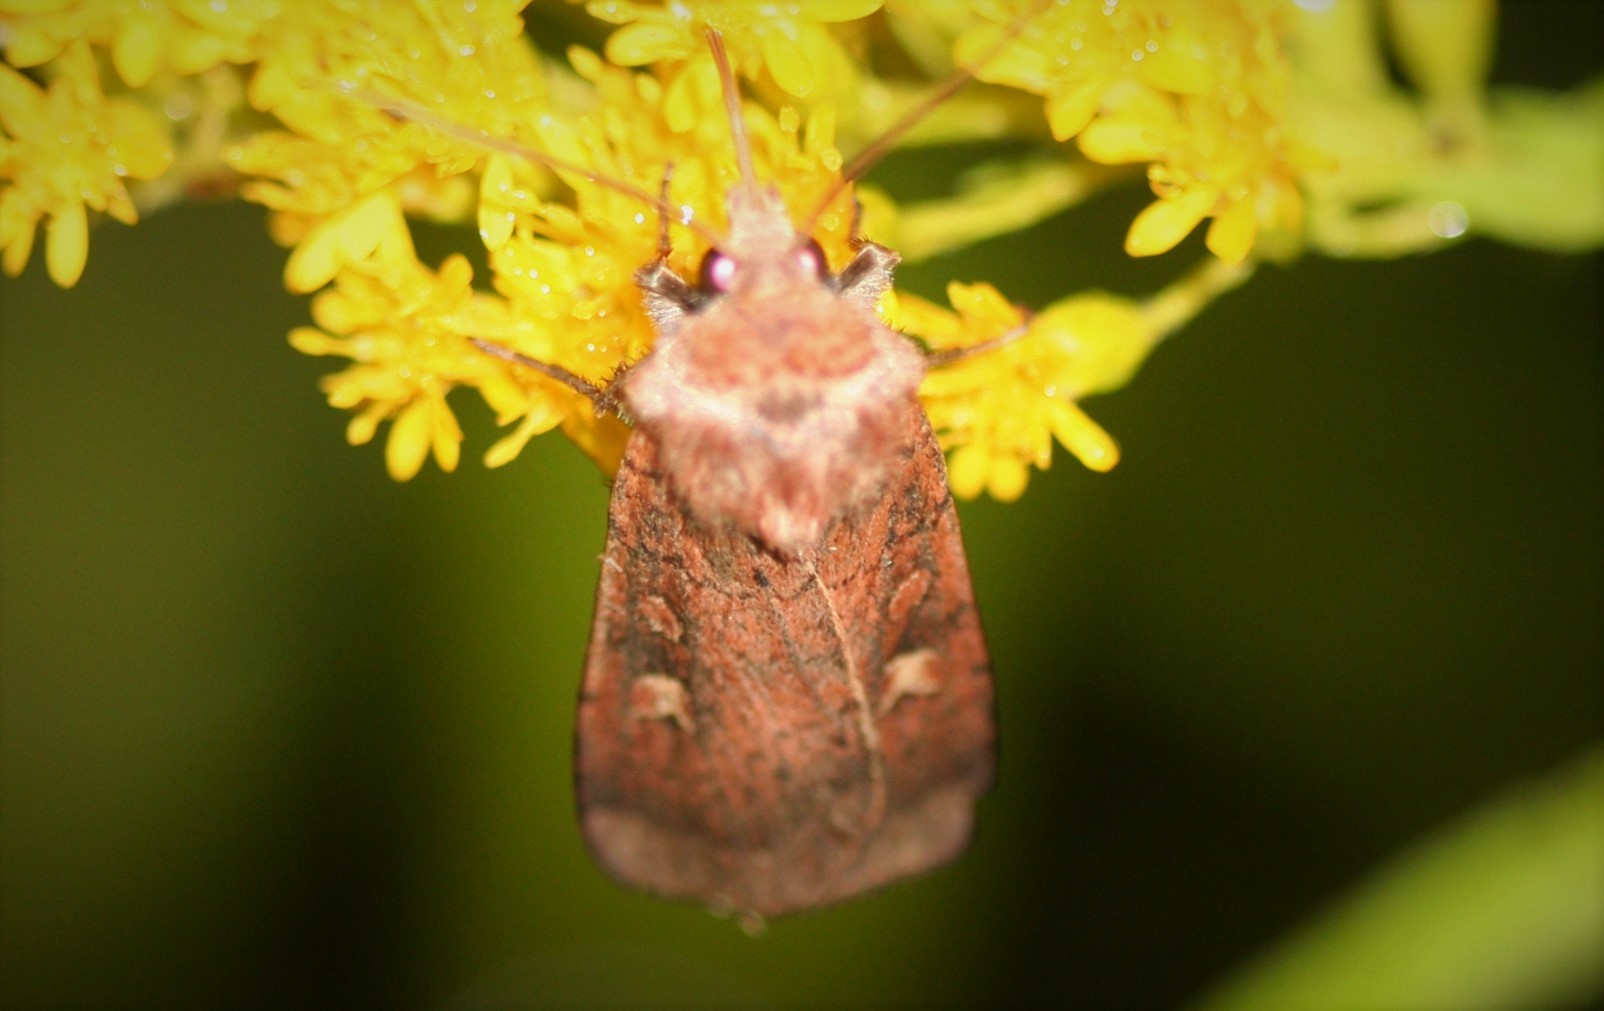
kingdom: Animalia
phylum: Arthropoda
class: Insecta
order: Lepidoptera
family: Noctuidae
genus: Xestia
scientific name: Xestia xanthographa
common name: Square-spot rustic
